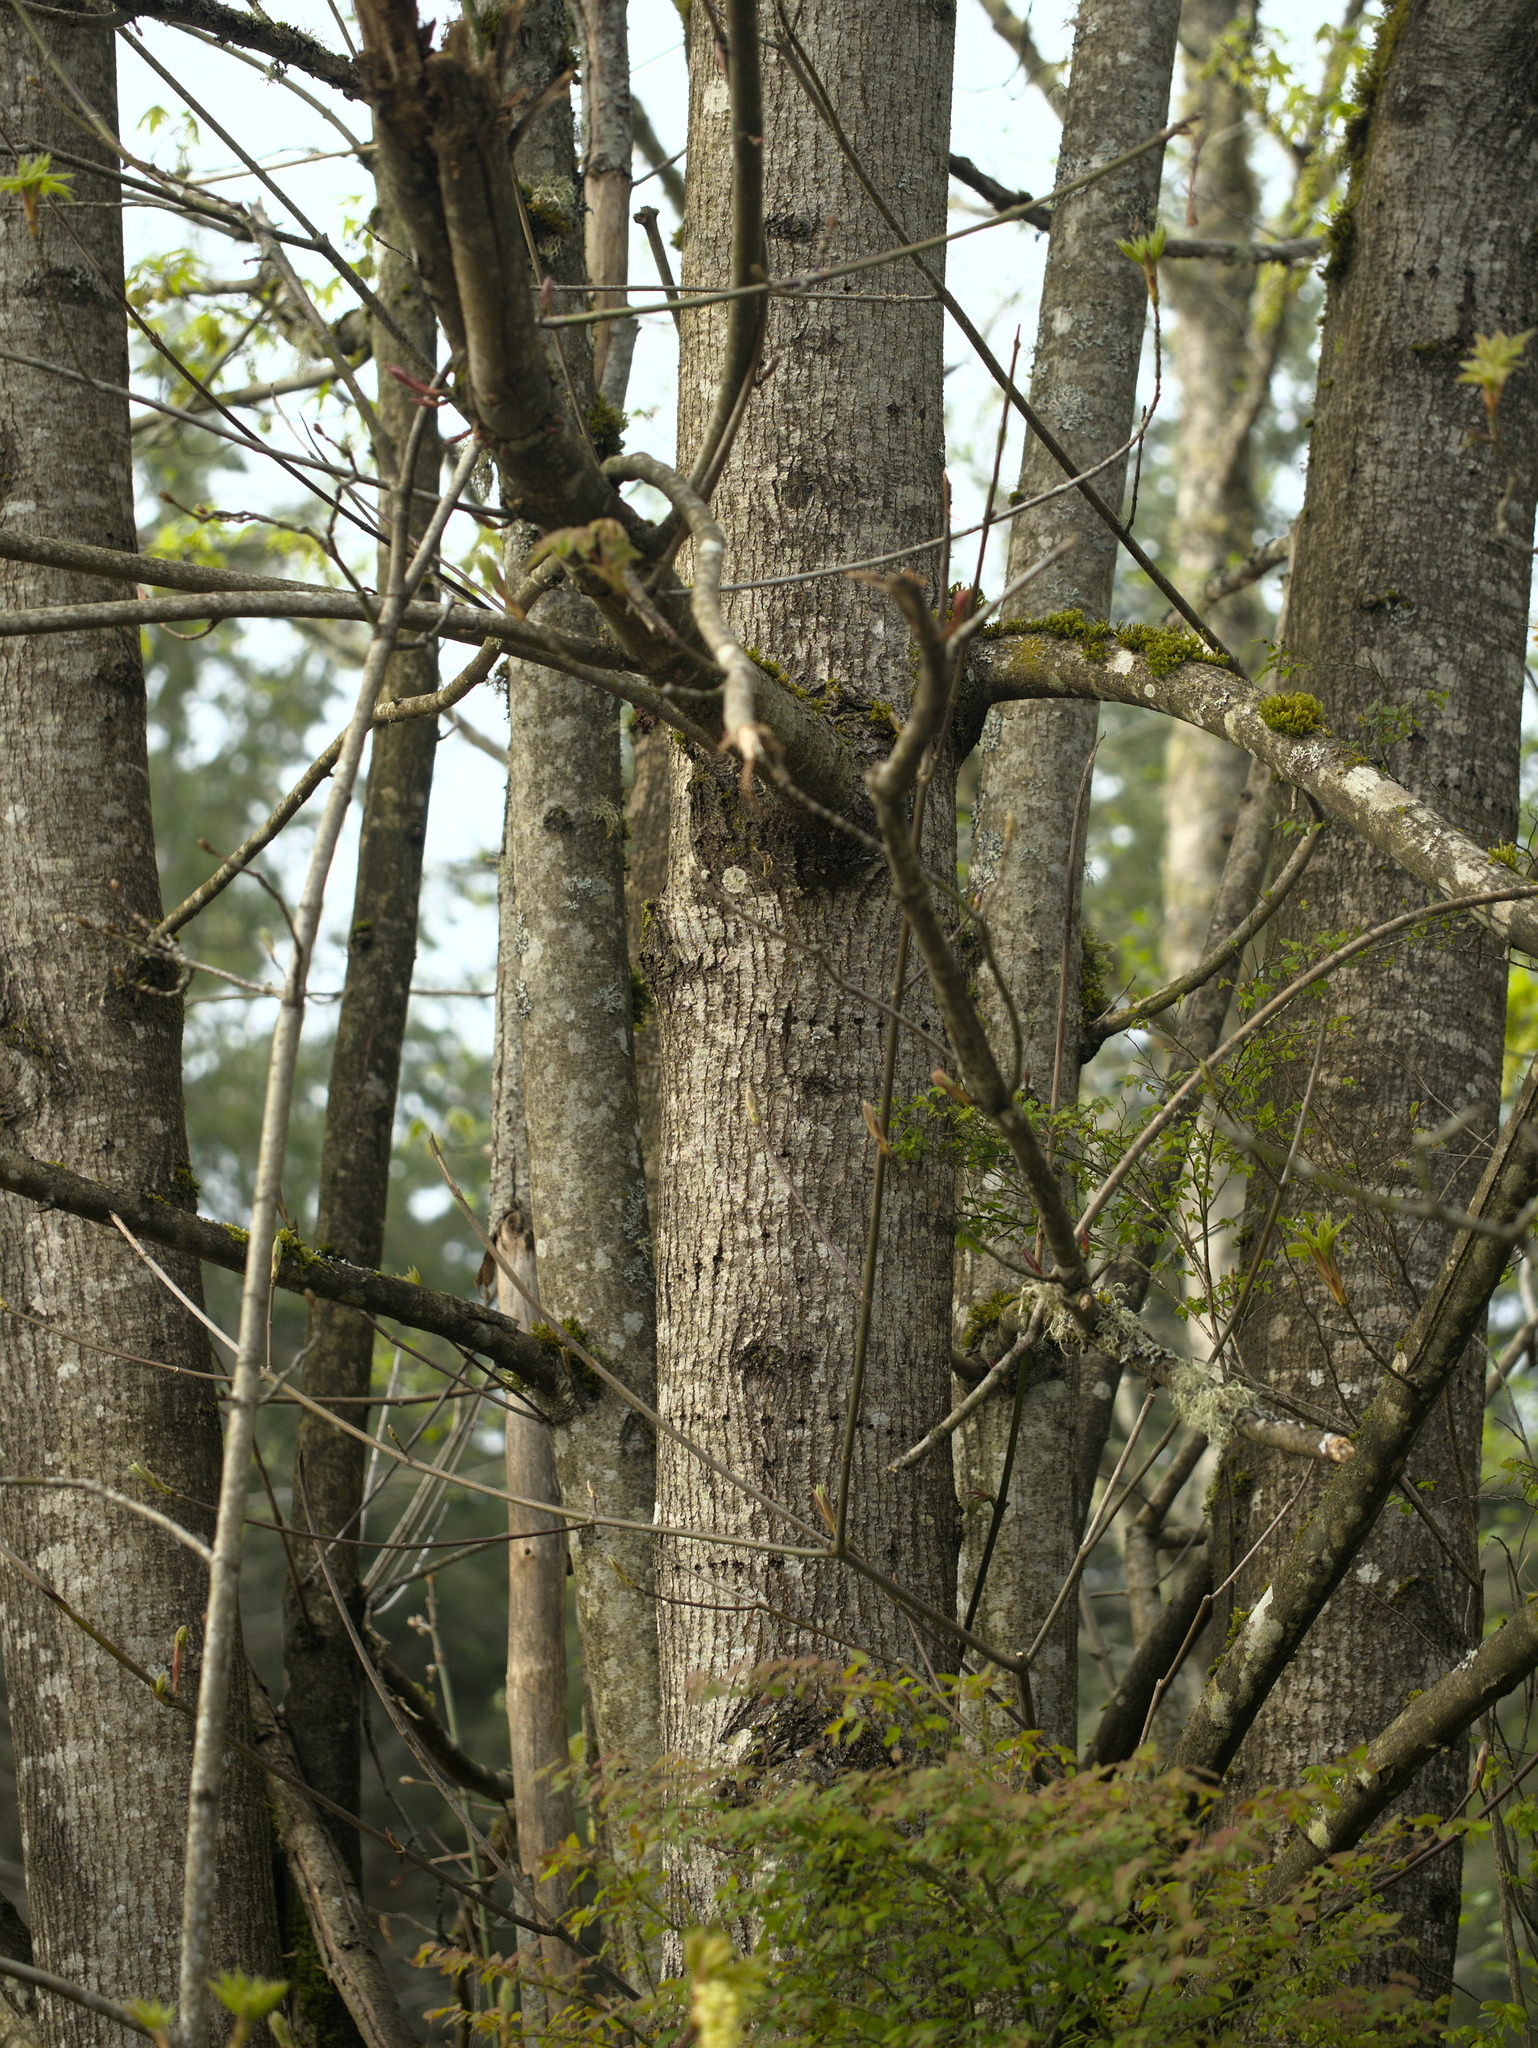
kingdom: Plantae
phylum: Tracheophyta
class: Magnoliopsida
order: Sapindales
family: Sapindaceae
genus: Acer
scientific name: Acer macrophyllum
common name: Oregon maple
